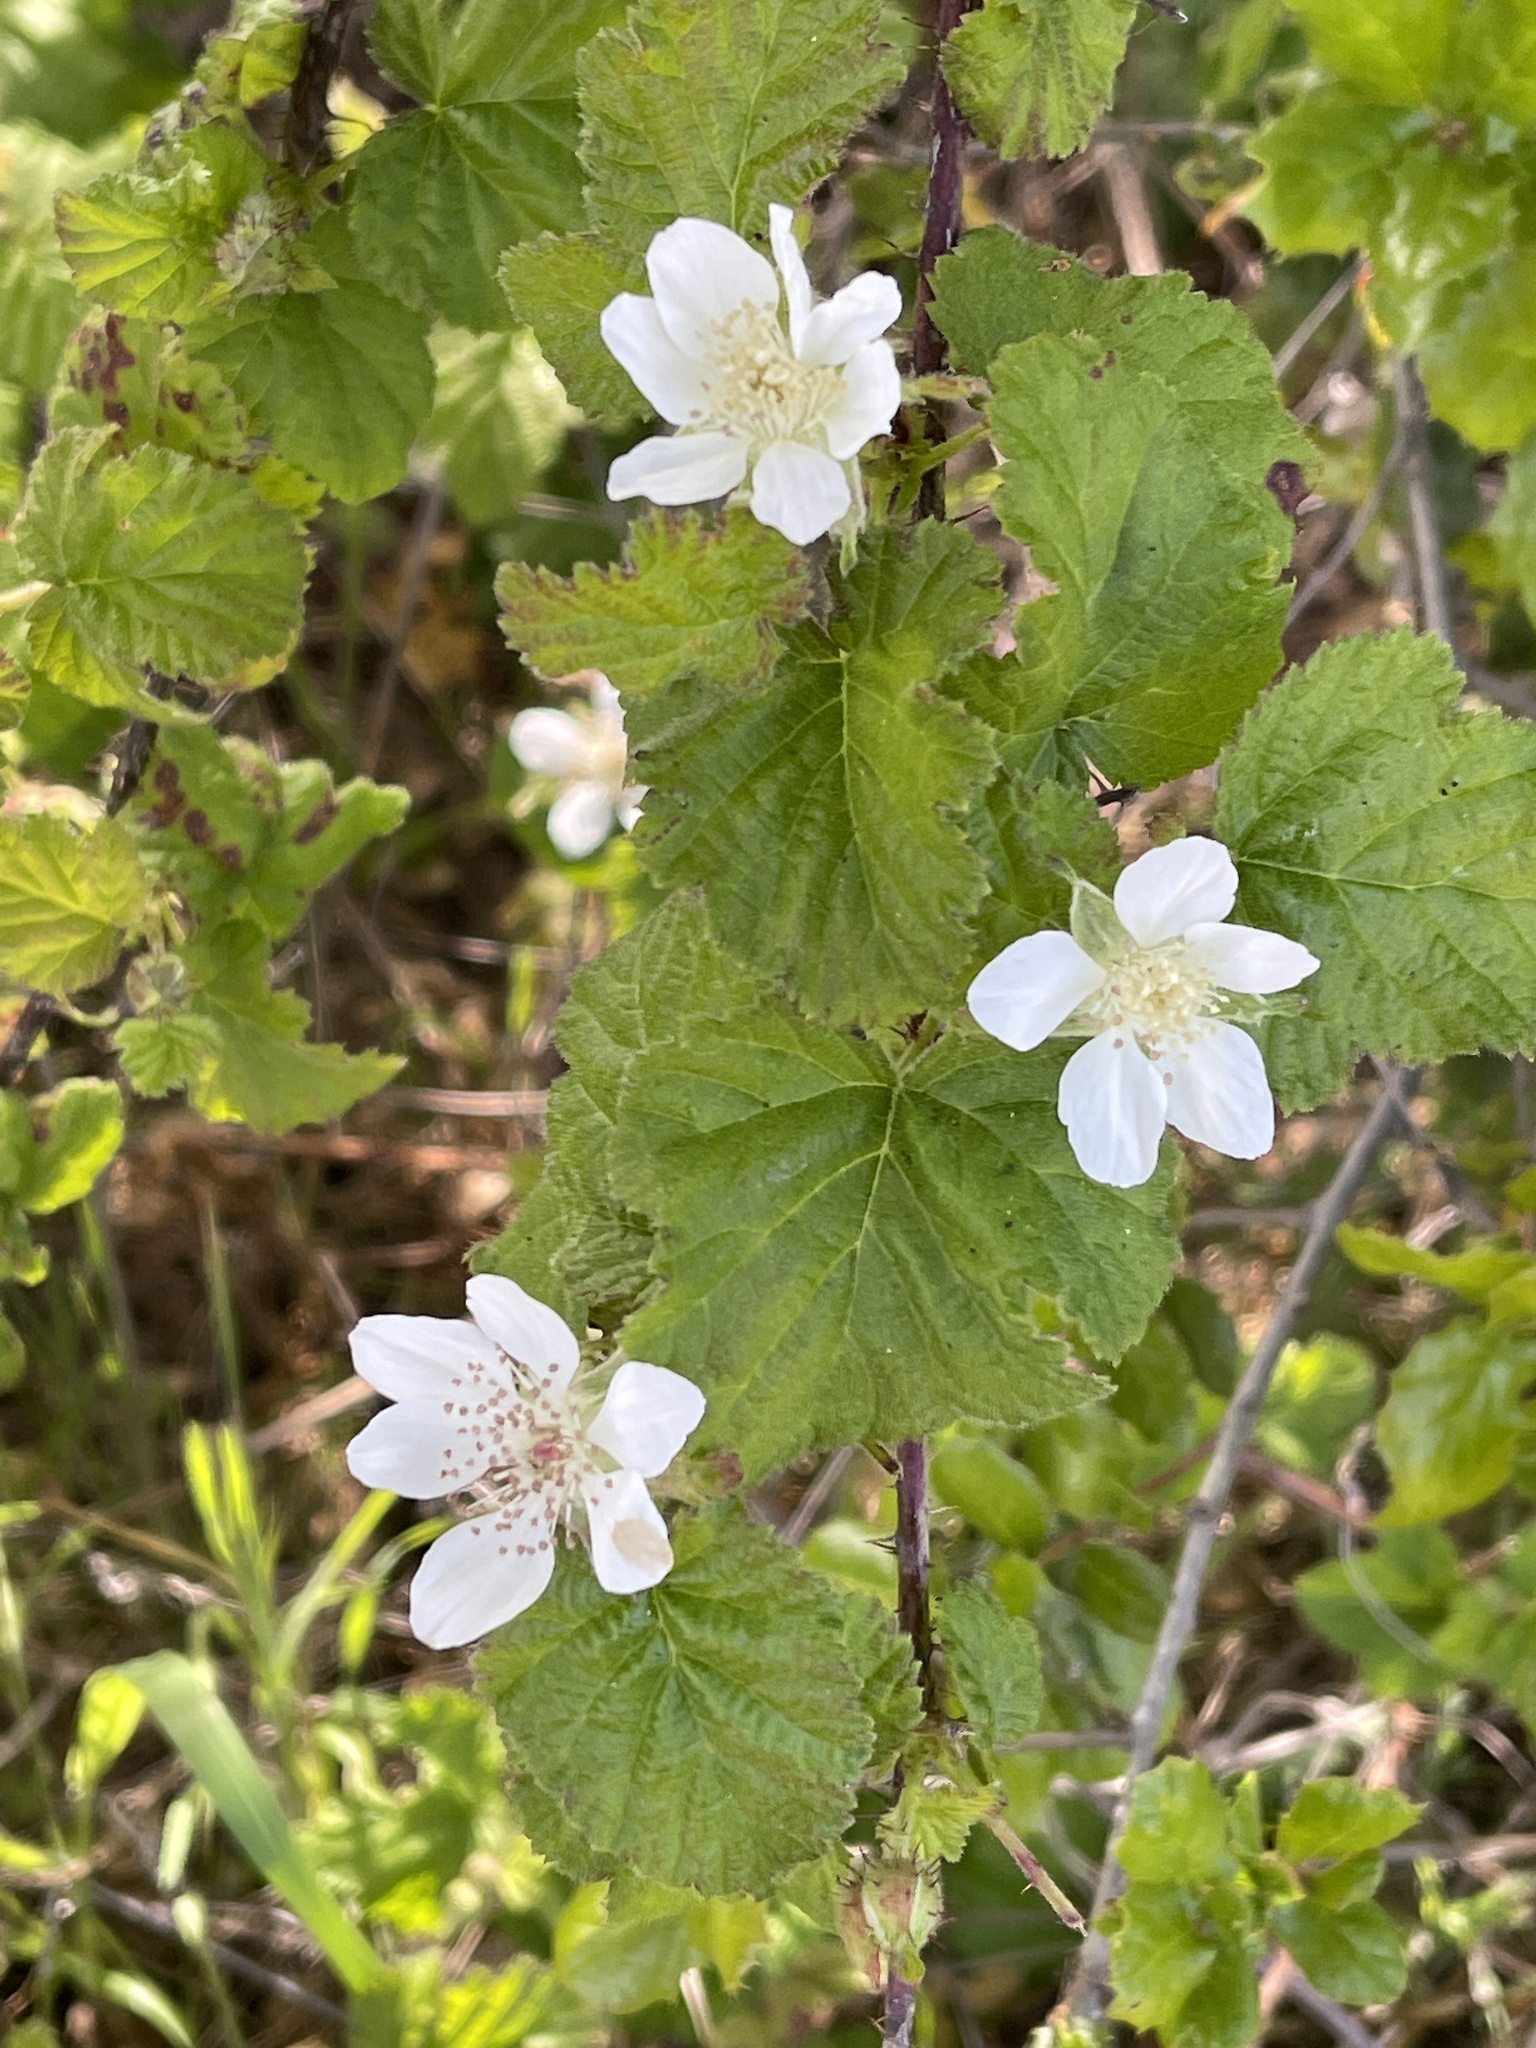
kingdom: Plantae
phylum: Tracheophyta
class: Magnoliopsida
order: Rosales
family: Rosaceae
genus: Rubus
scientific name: Rubus ursinus
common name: Pacific blackberry
